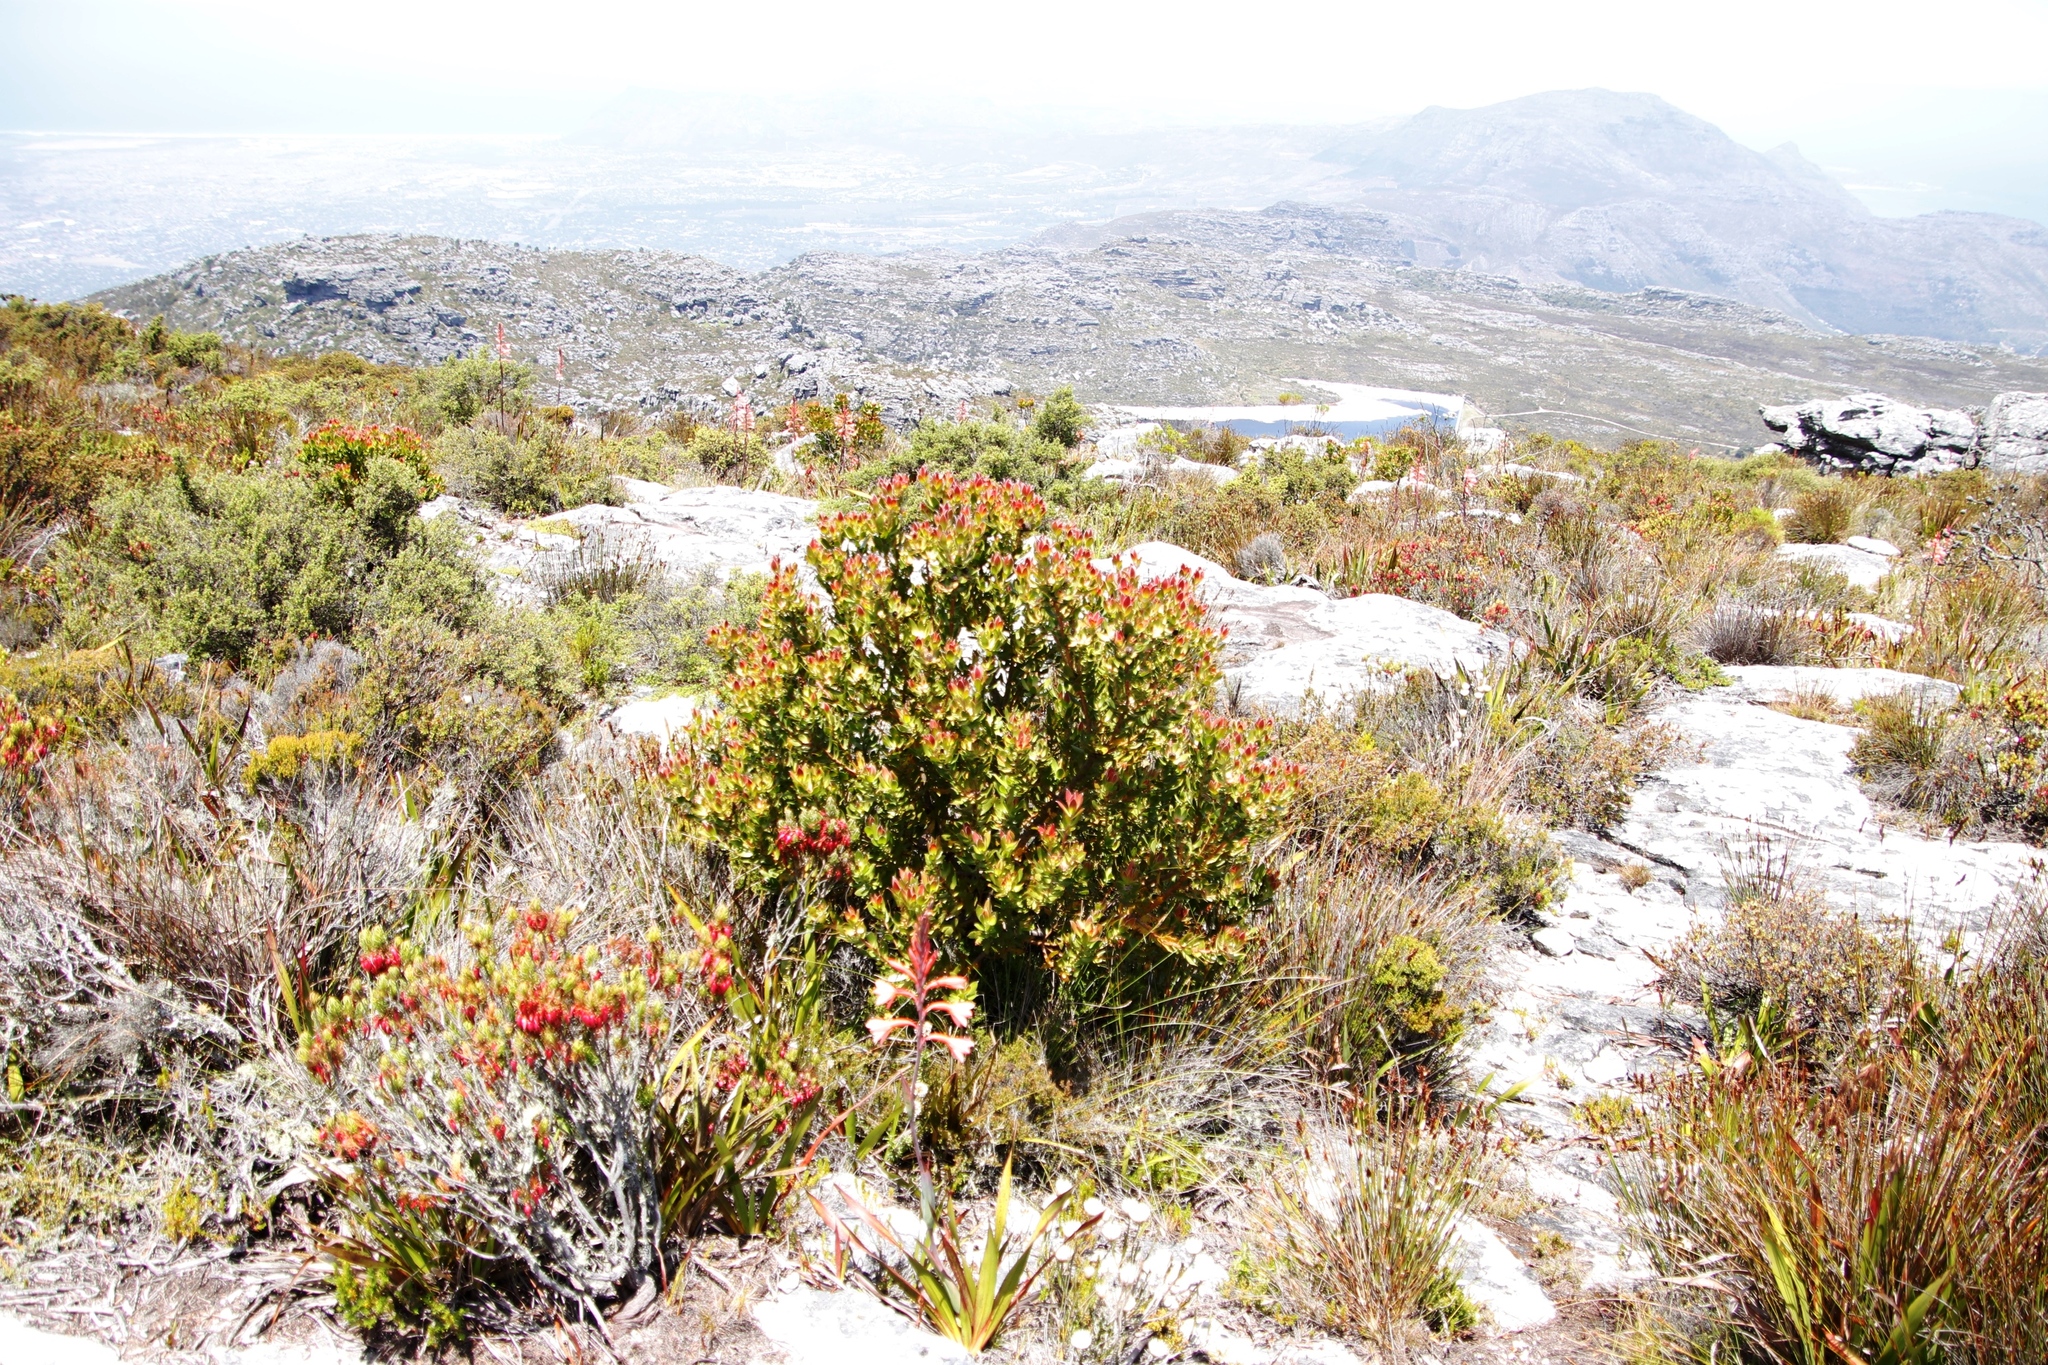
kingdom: Plantae
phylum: Tracheophyta
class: Magnoliopsida
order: Proteales
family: Proteaceae
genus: Leucadendron
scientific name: Leucadendron strobilinum
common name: Mountain rose
